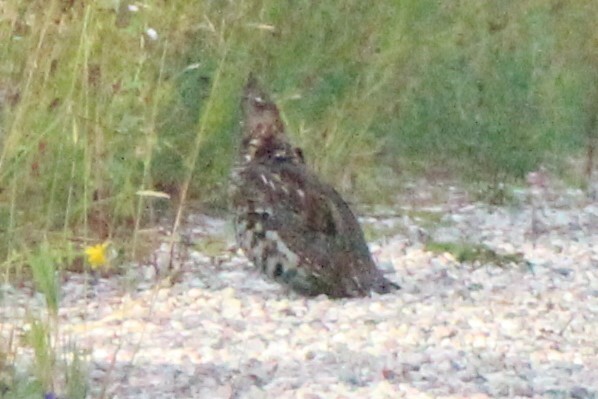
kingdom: Animalia
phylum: Chordata
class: Aves
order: Galliformes
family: Phasianidae
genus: Bonasa
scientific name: Bonasa umbellus
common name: Ruffed grouse
